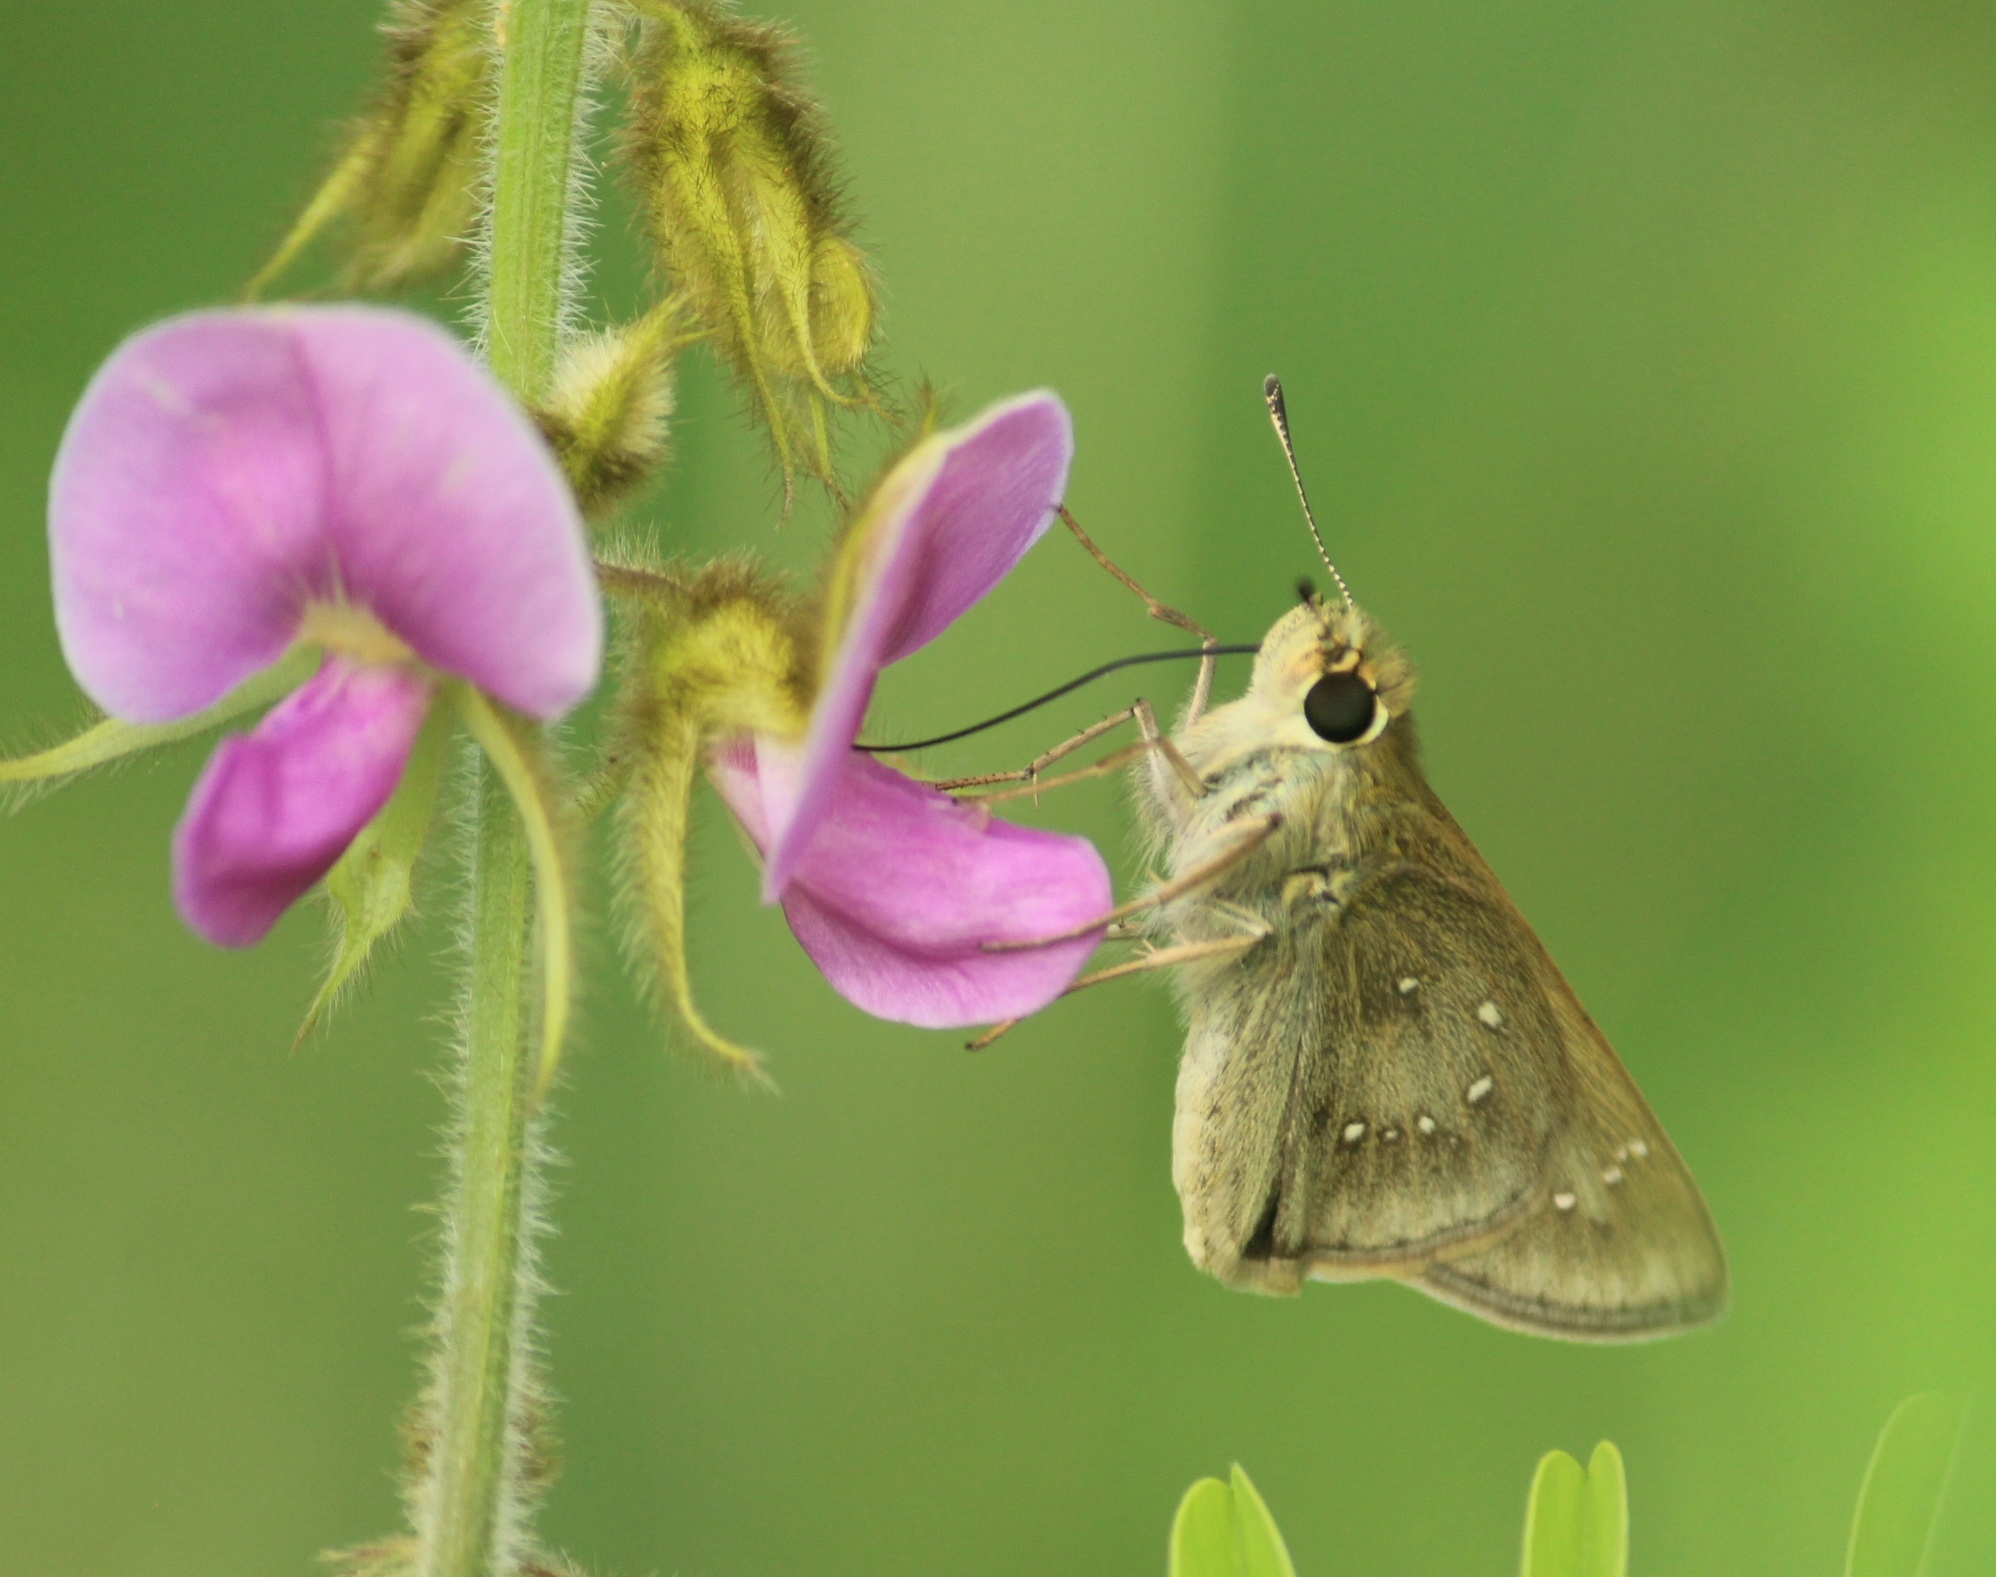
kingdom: Animalia
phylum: Arthropoda
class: Insecta
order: Lepidoptera
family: Hesperiidae
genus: Pelopidas
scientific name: Pelopidas mathias
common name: Black-branded swift
